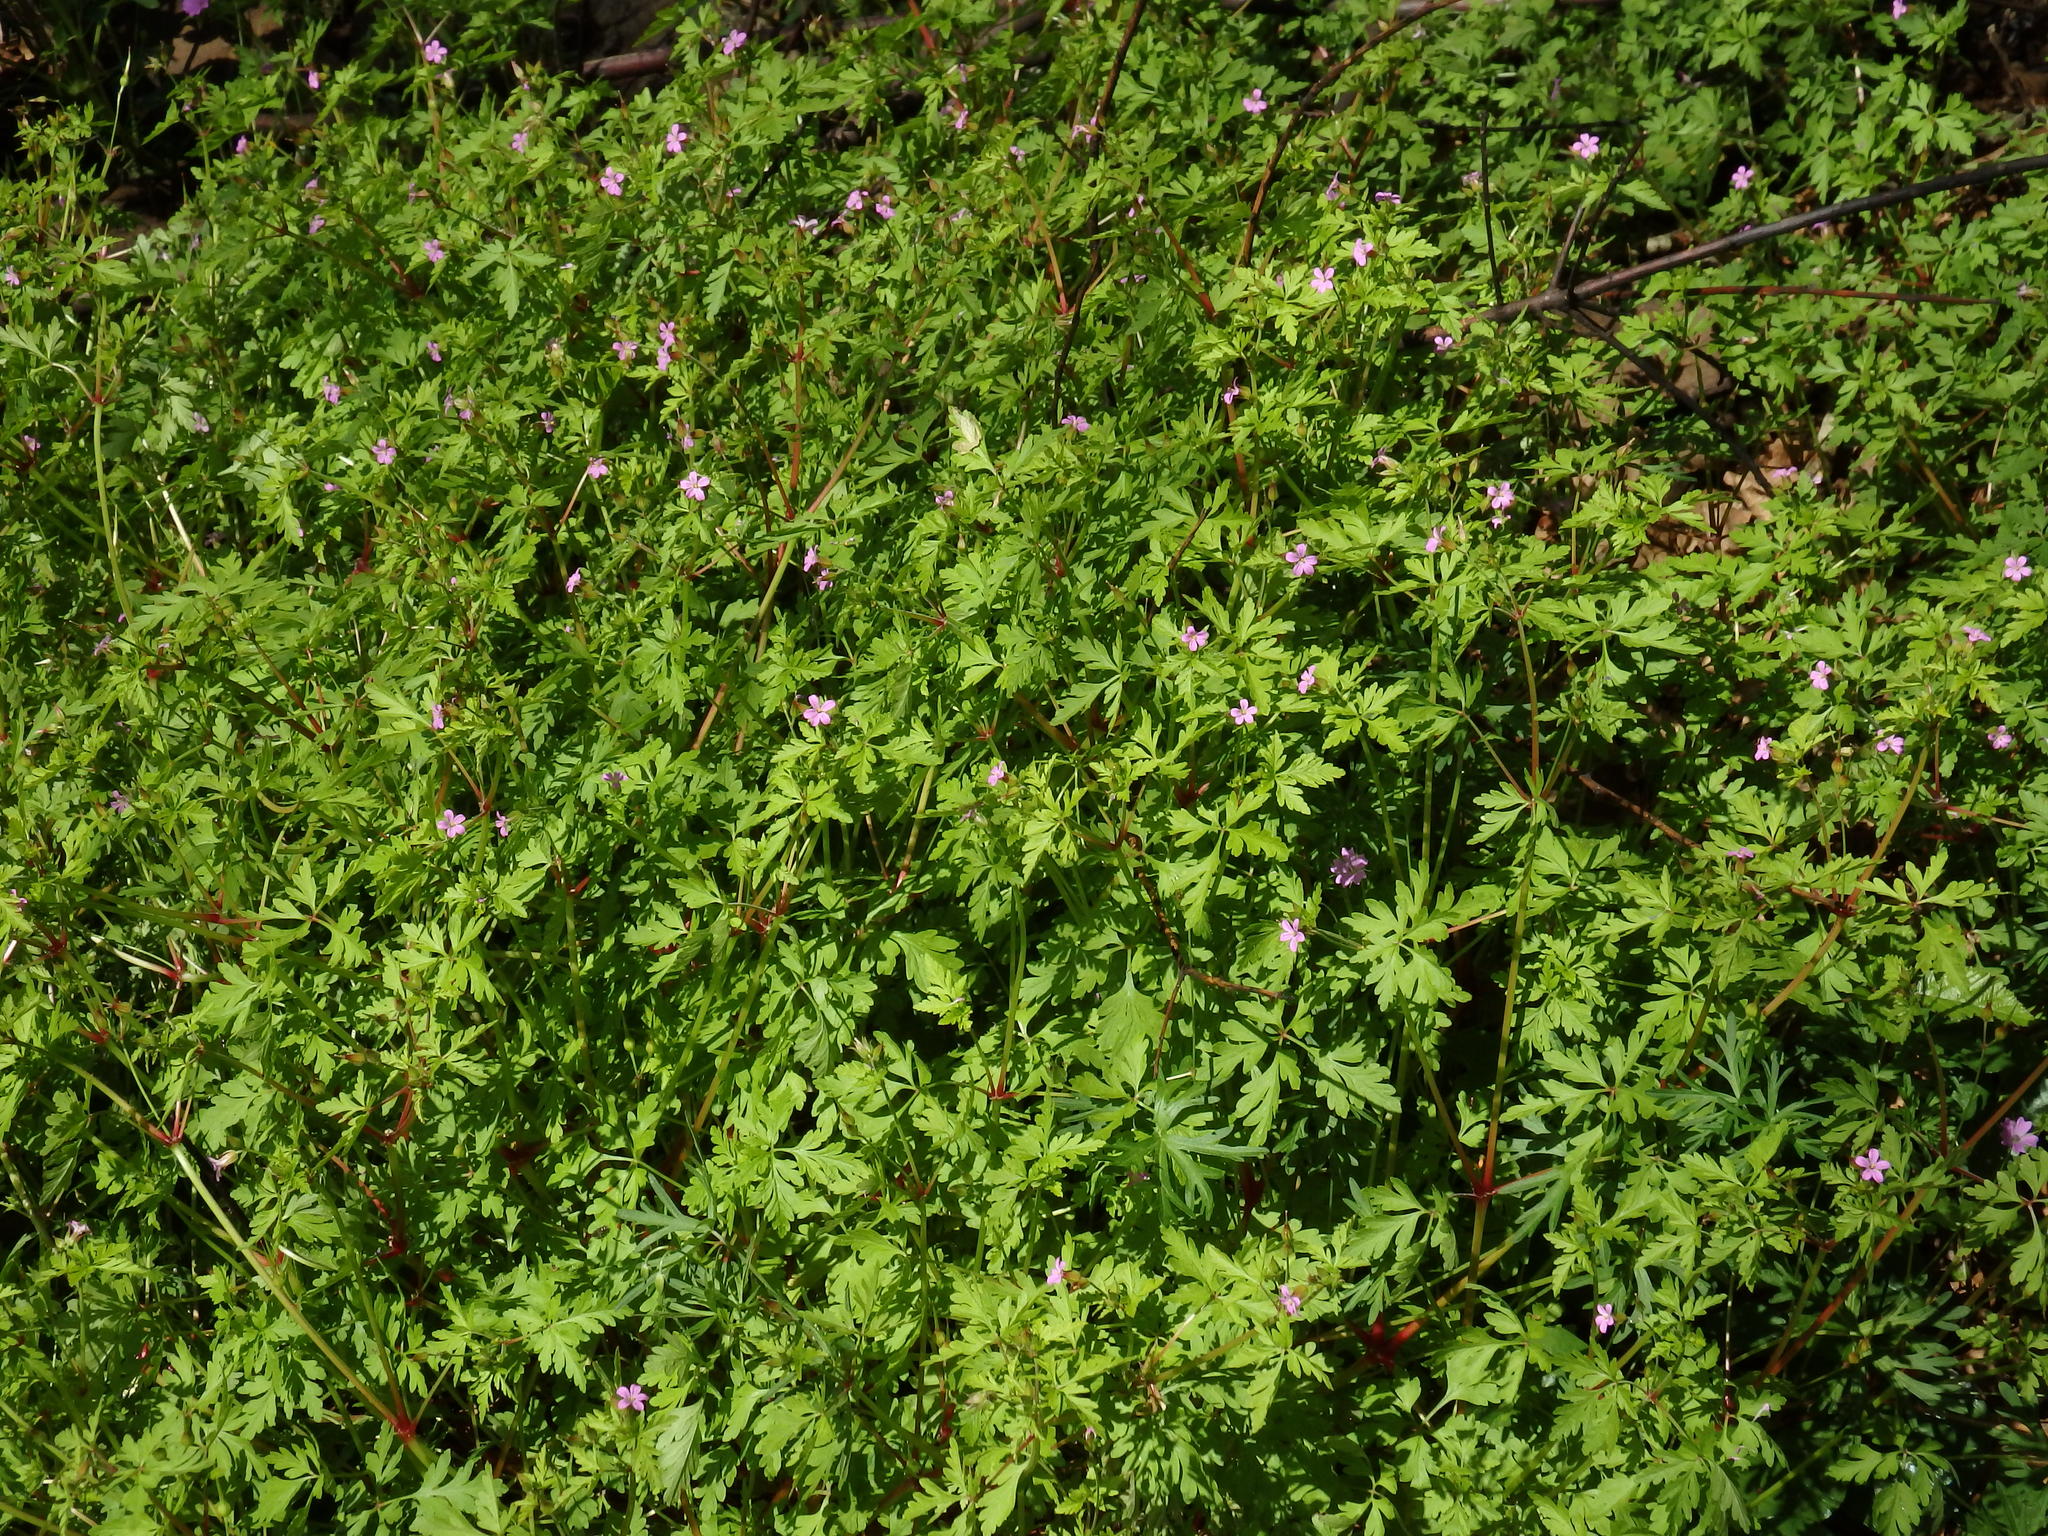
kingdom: Plantae
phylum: Tracheophyta
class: Magnoliopsida
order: Geraniales
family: Geraniaceae
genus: Geranium
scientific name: Geranium purpureum
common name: Little-robin
